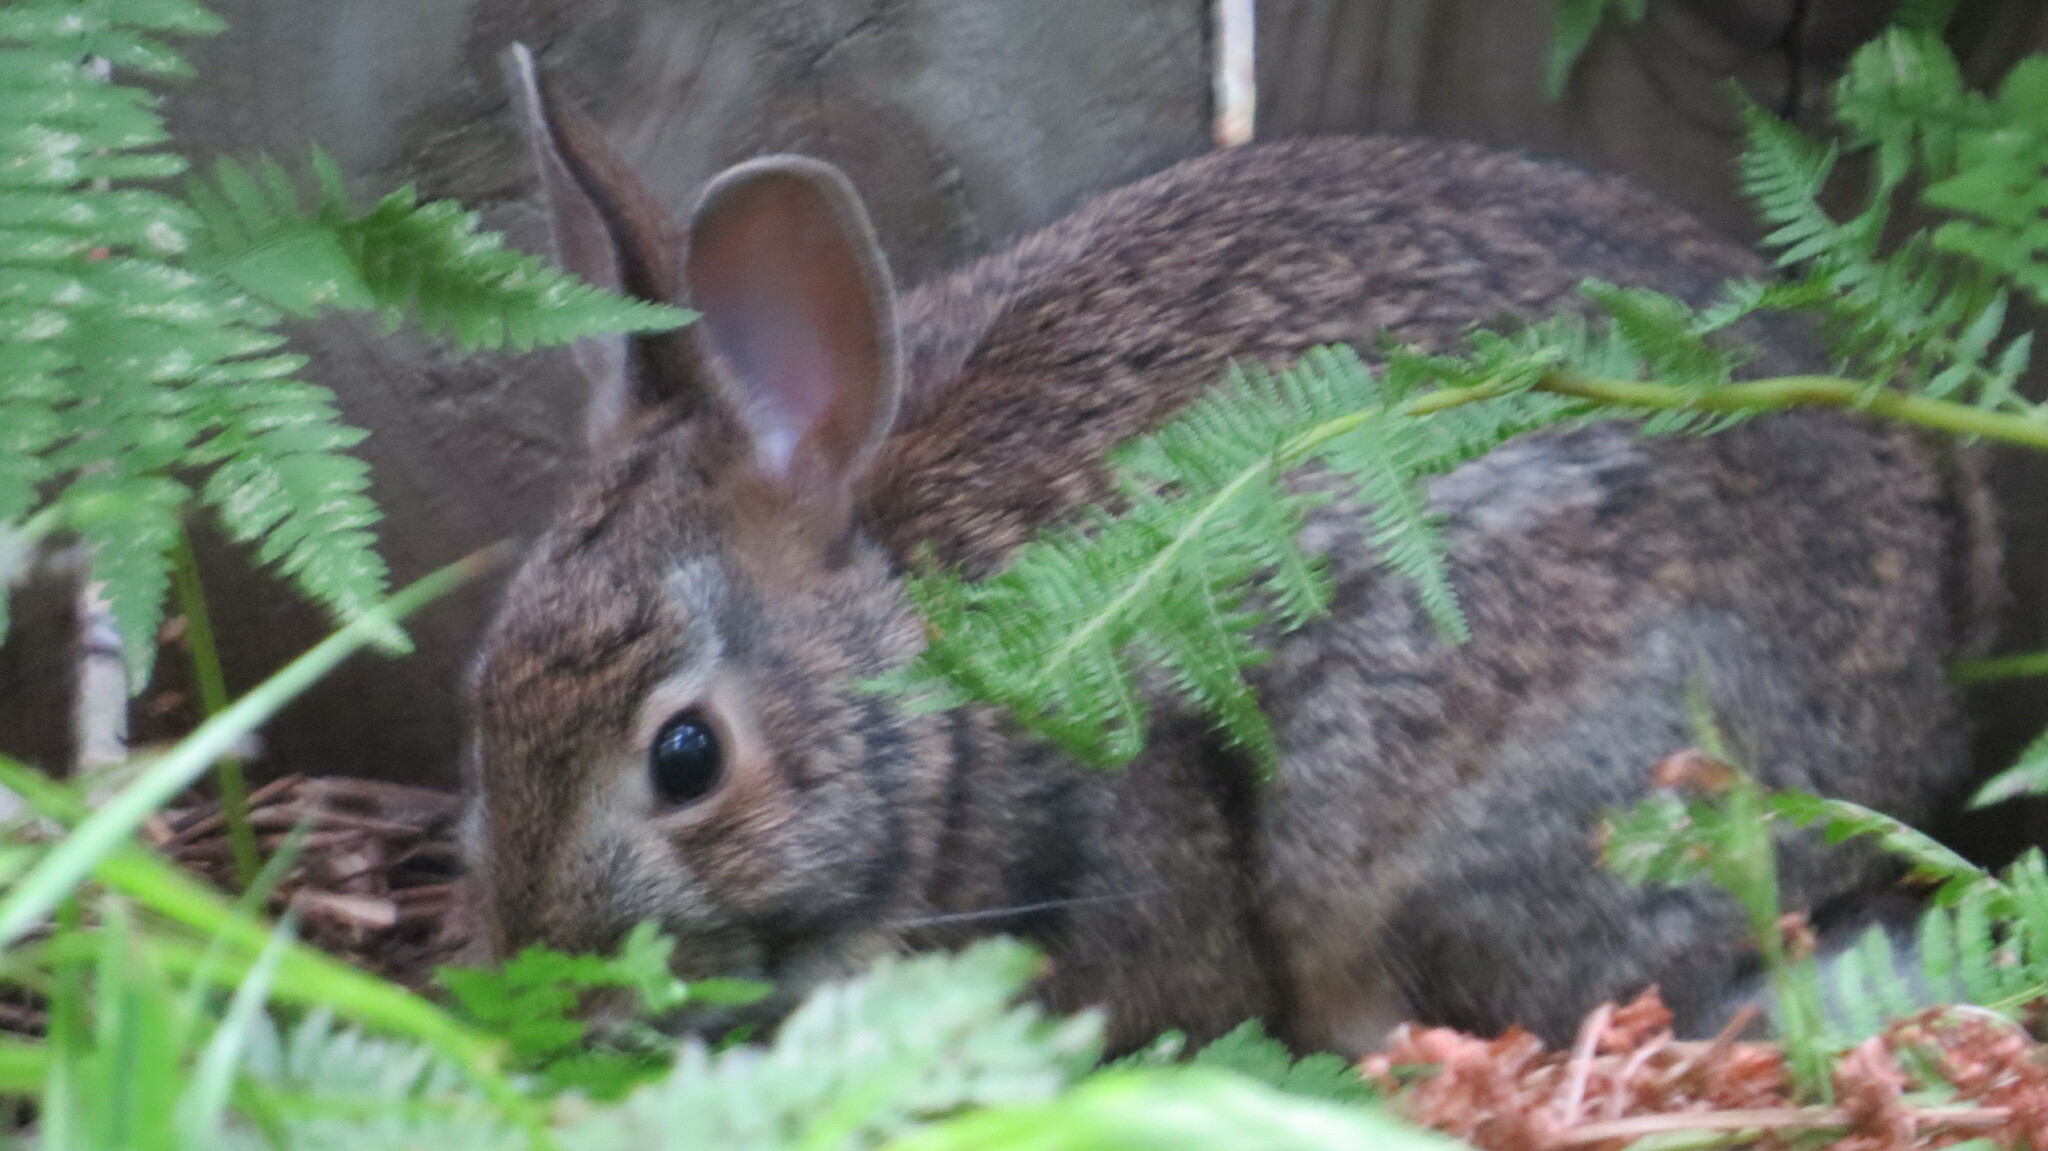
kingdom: Animalia
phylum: Chordata
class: Mammalia
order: Lagomorpha
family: Leporidae
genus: Sylvilagus
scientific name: Sylvilagus floridanus
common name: Eastern cottontail
